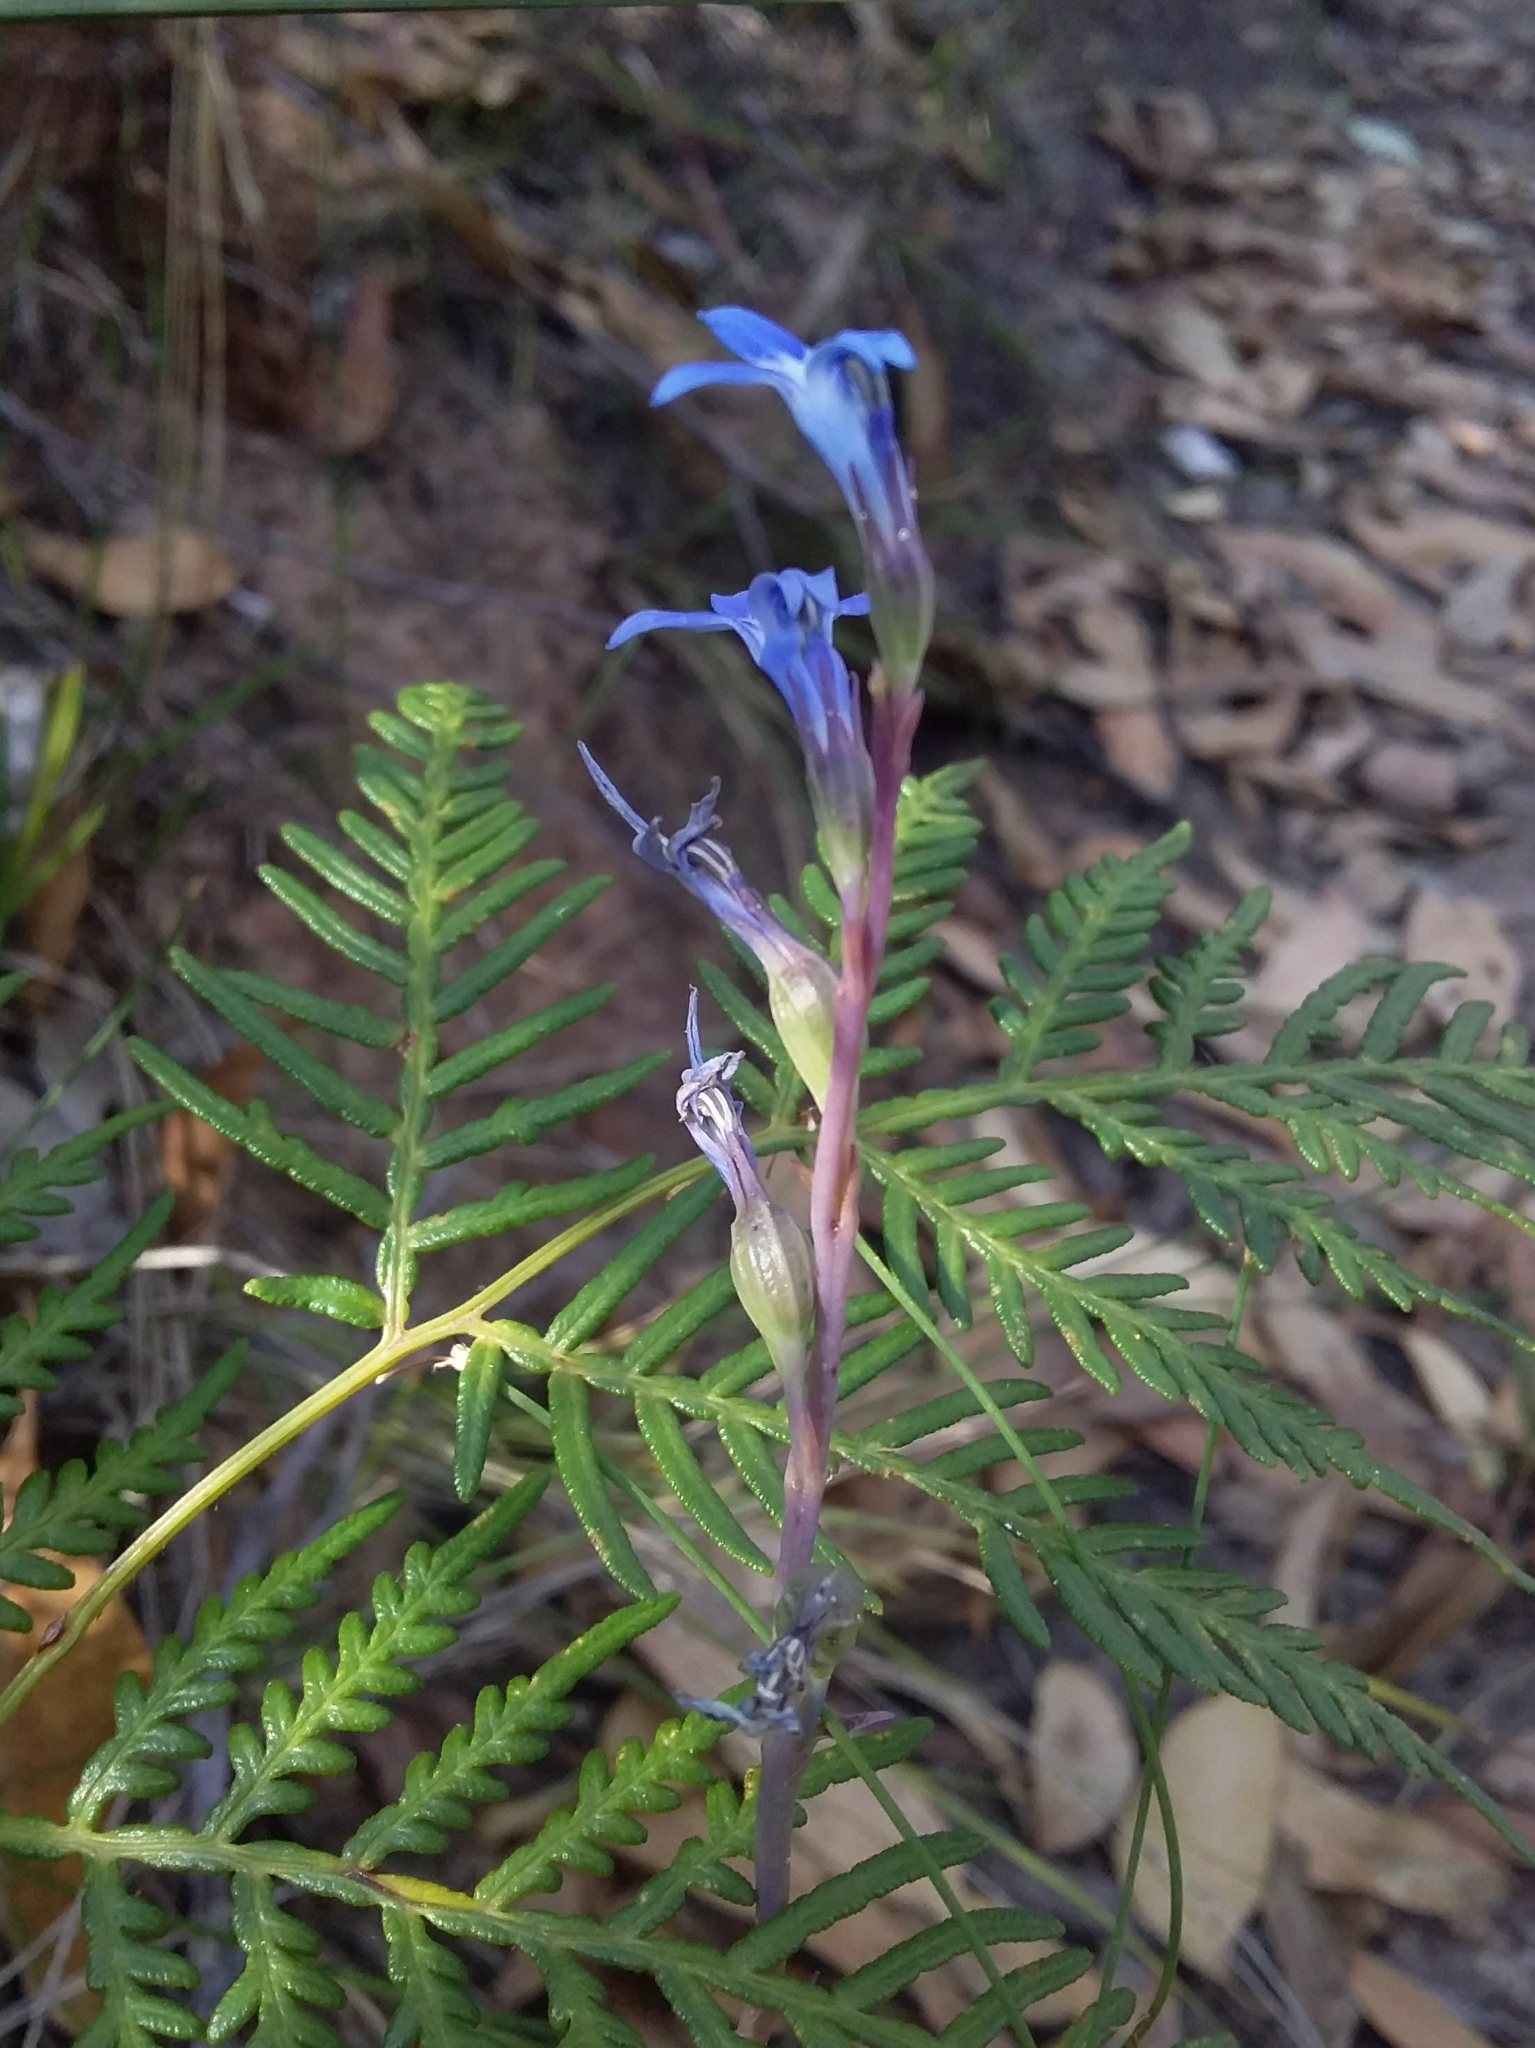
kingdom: Plantae
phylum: Tracheophyta
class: Magnoliopsida
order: Asterales
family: Campanulaceae
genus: Lobelia
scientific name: Lobelia gibbosa
